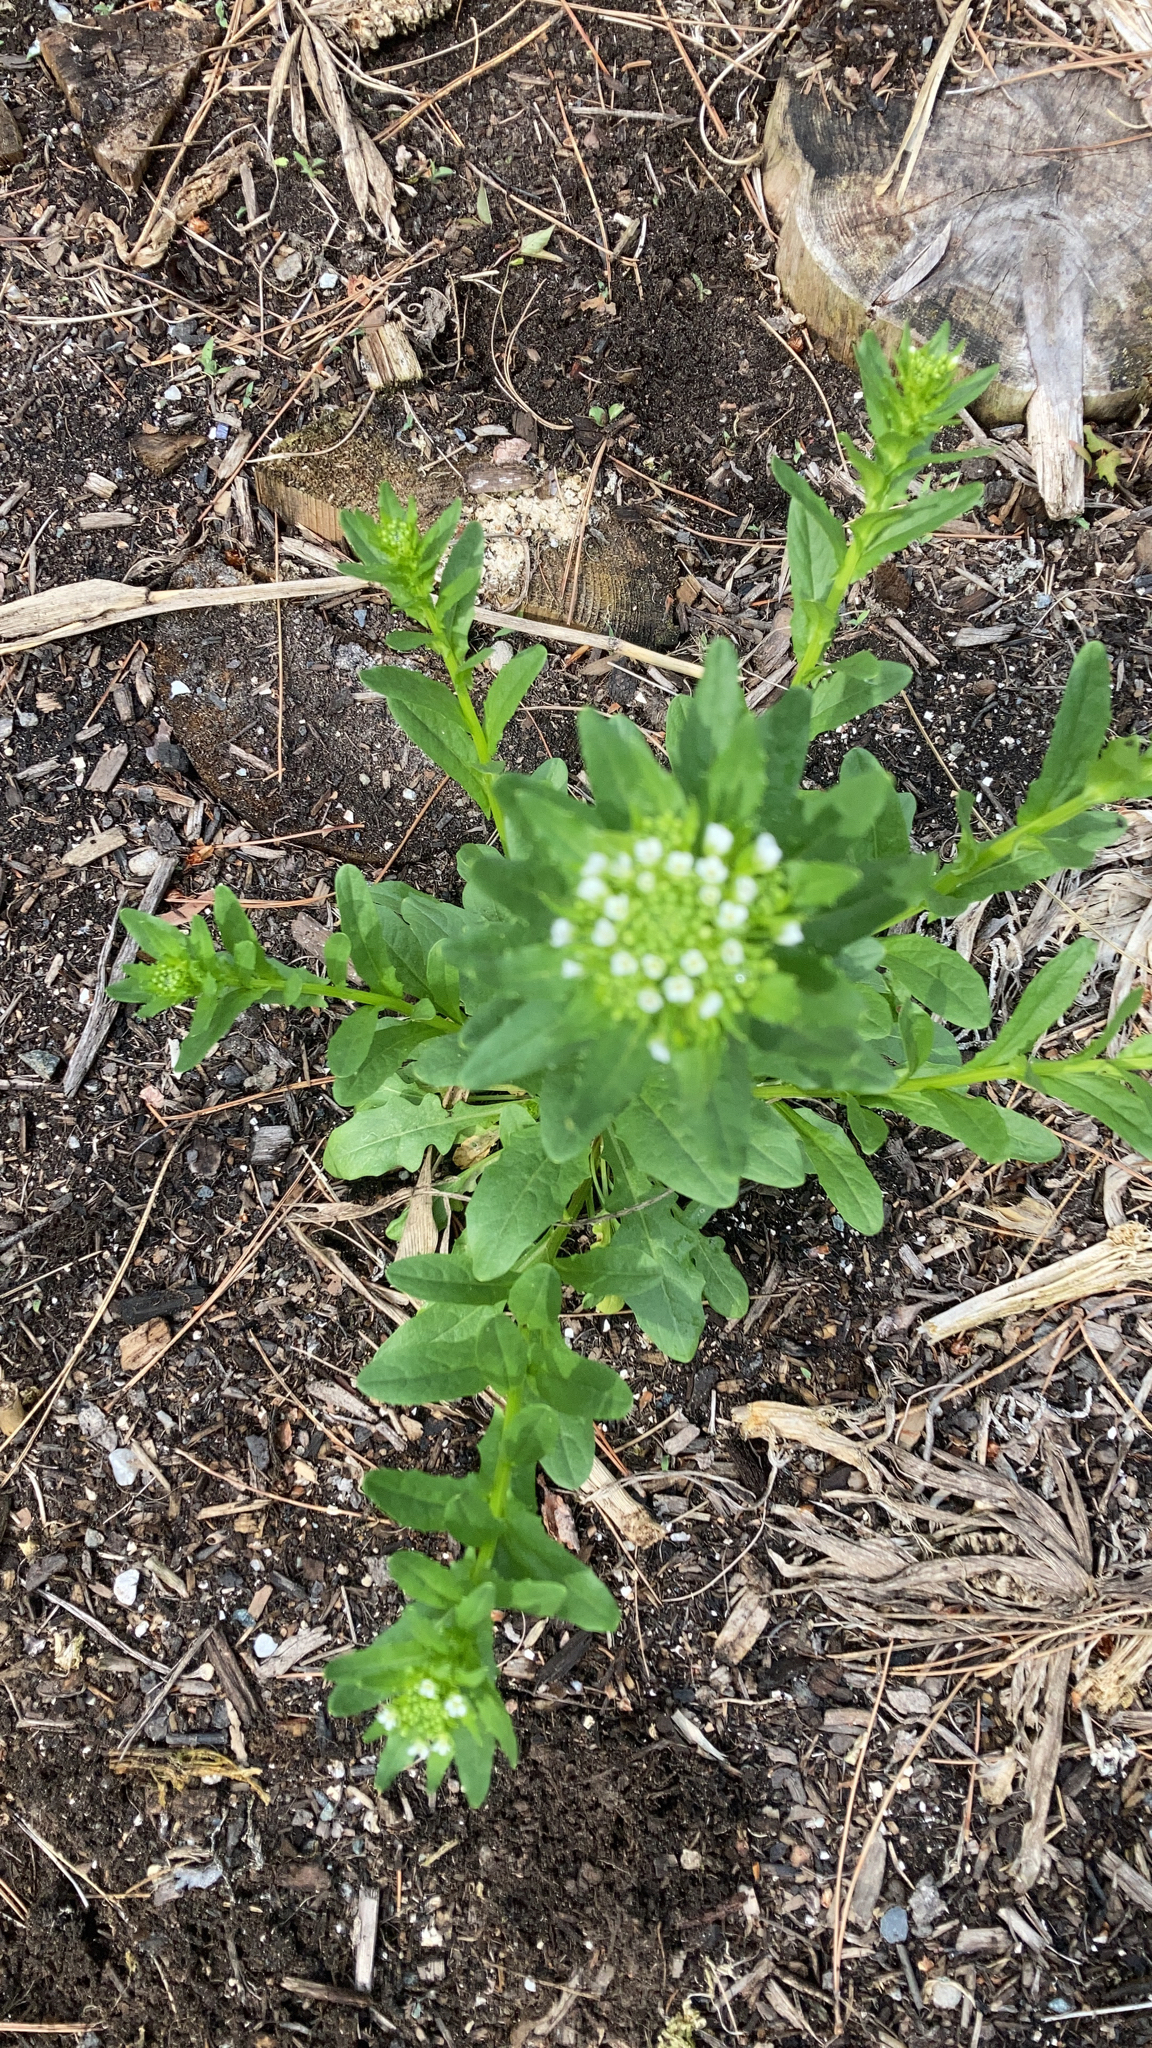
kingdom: Plantae
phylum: Tracheophyta
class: Magnoliopsida
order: Brassicales
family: Brassicaceae
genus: Thlaspi
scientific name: Thlaspi arvense
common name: Field pennycress
